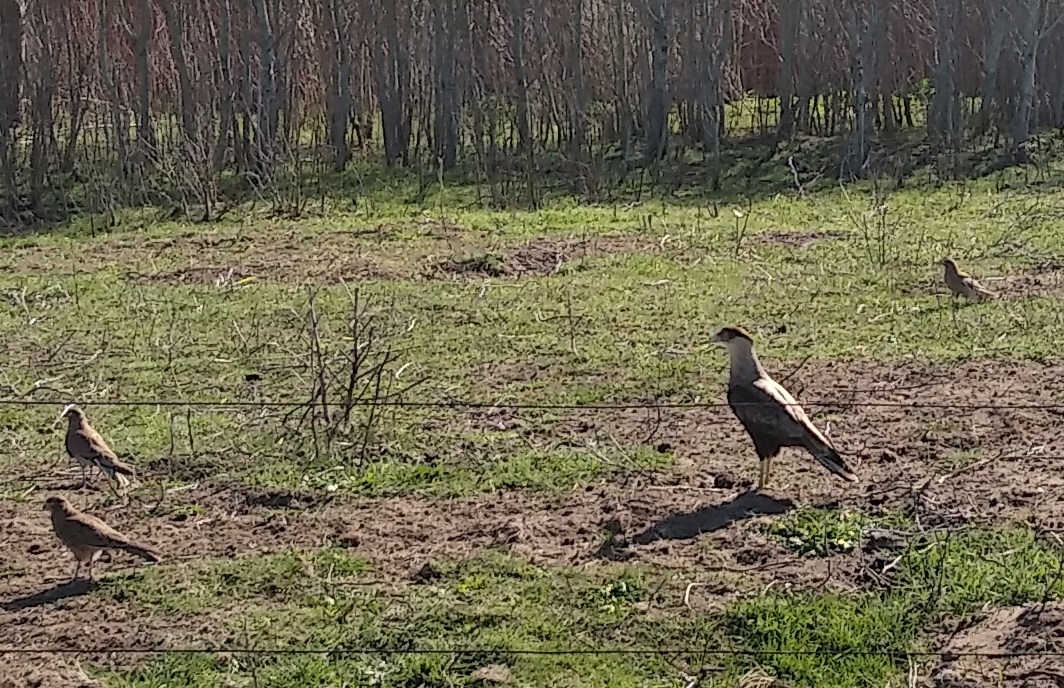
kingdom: Animalia
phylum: Chordata
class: Aves
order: Falconiformes
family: Falconidae
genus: Caracara
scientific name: Caracara plancus
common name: Southern caracara
